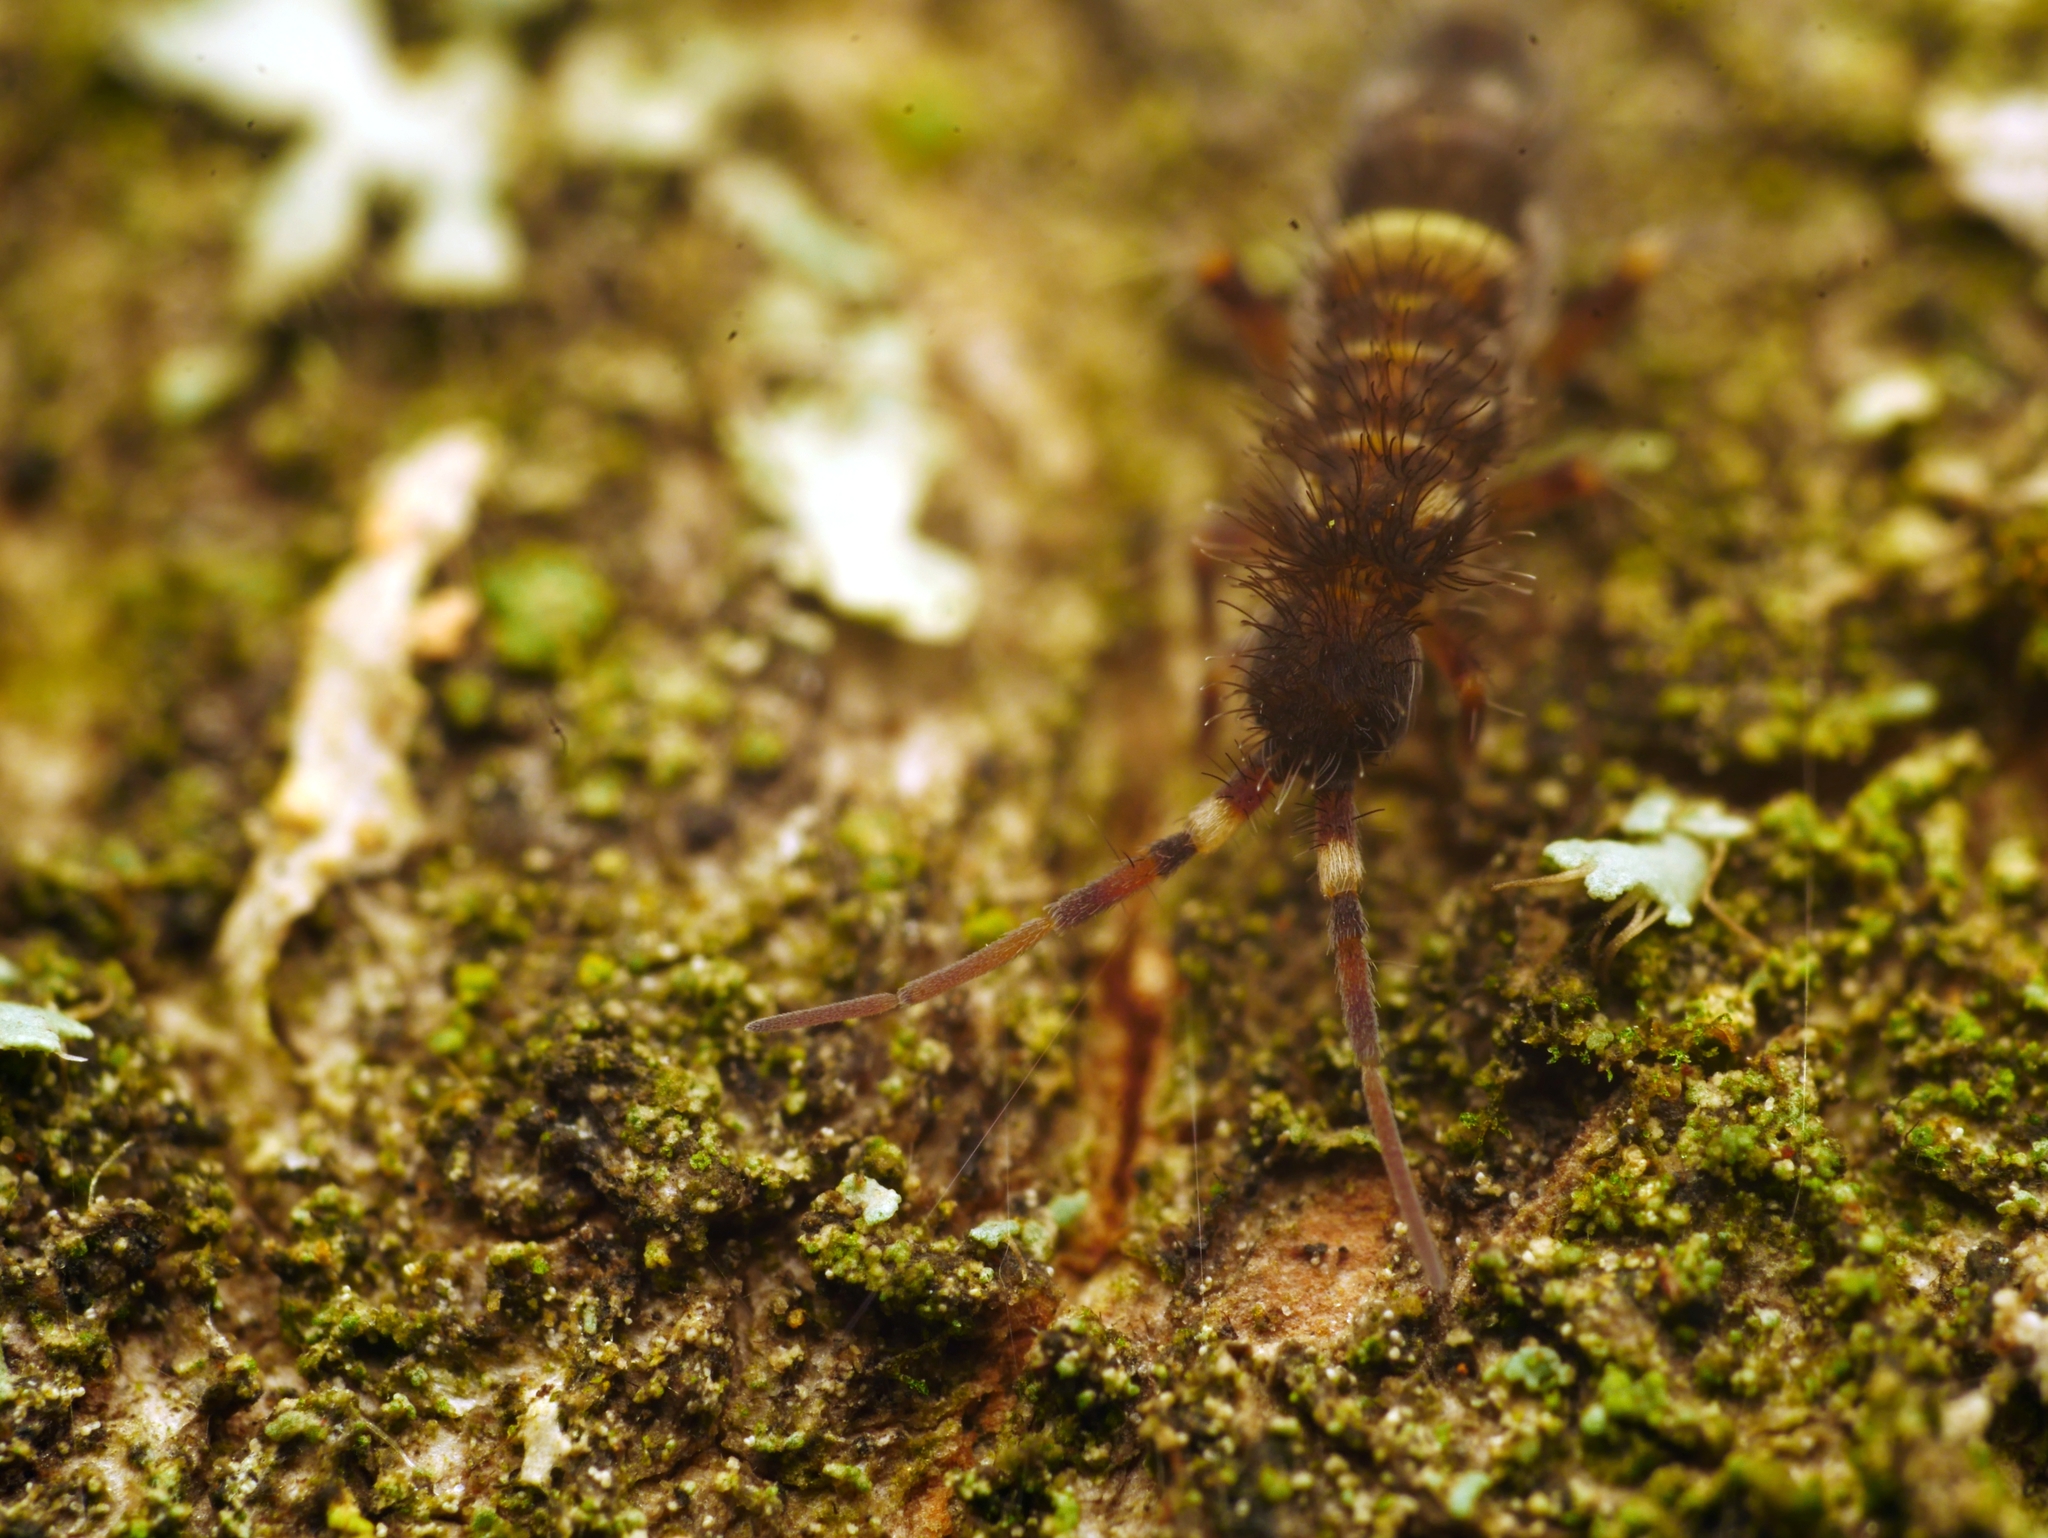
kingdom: Animalia
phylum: Arthropoda
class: Collembola
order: Entomobryomorpha
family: Orchesellidae
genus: Orchesella
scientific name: Orchesella cincta
